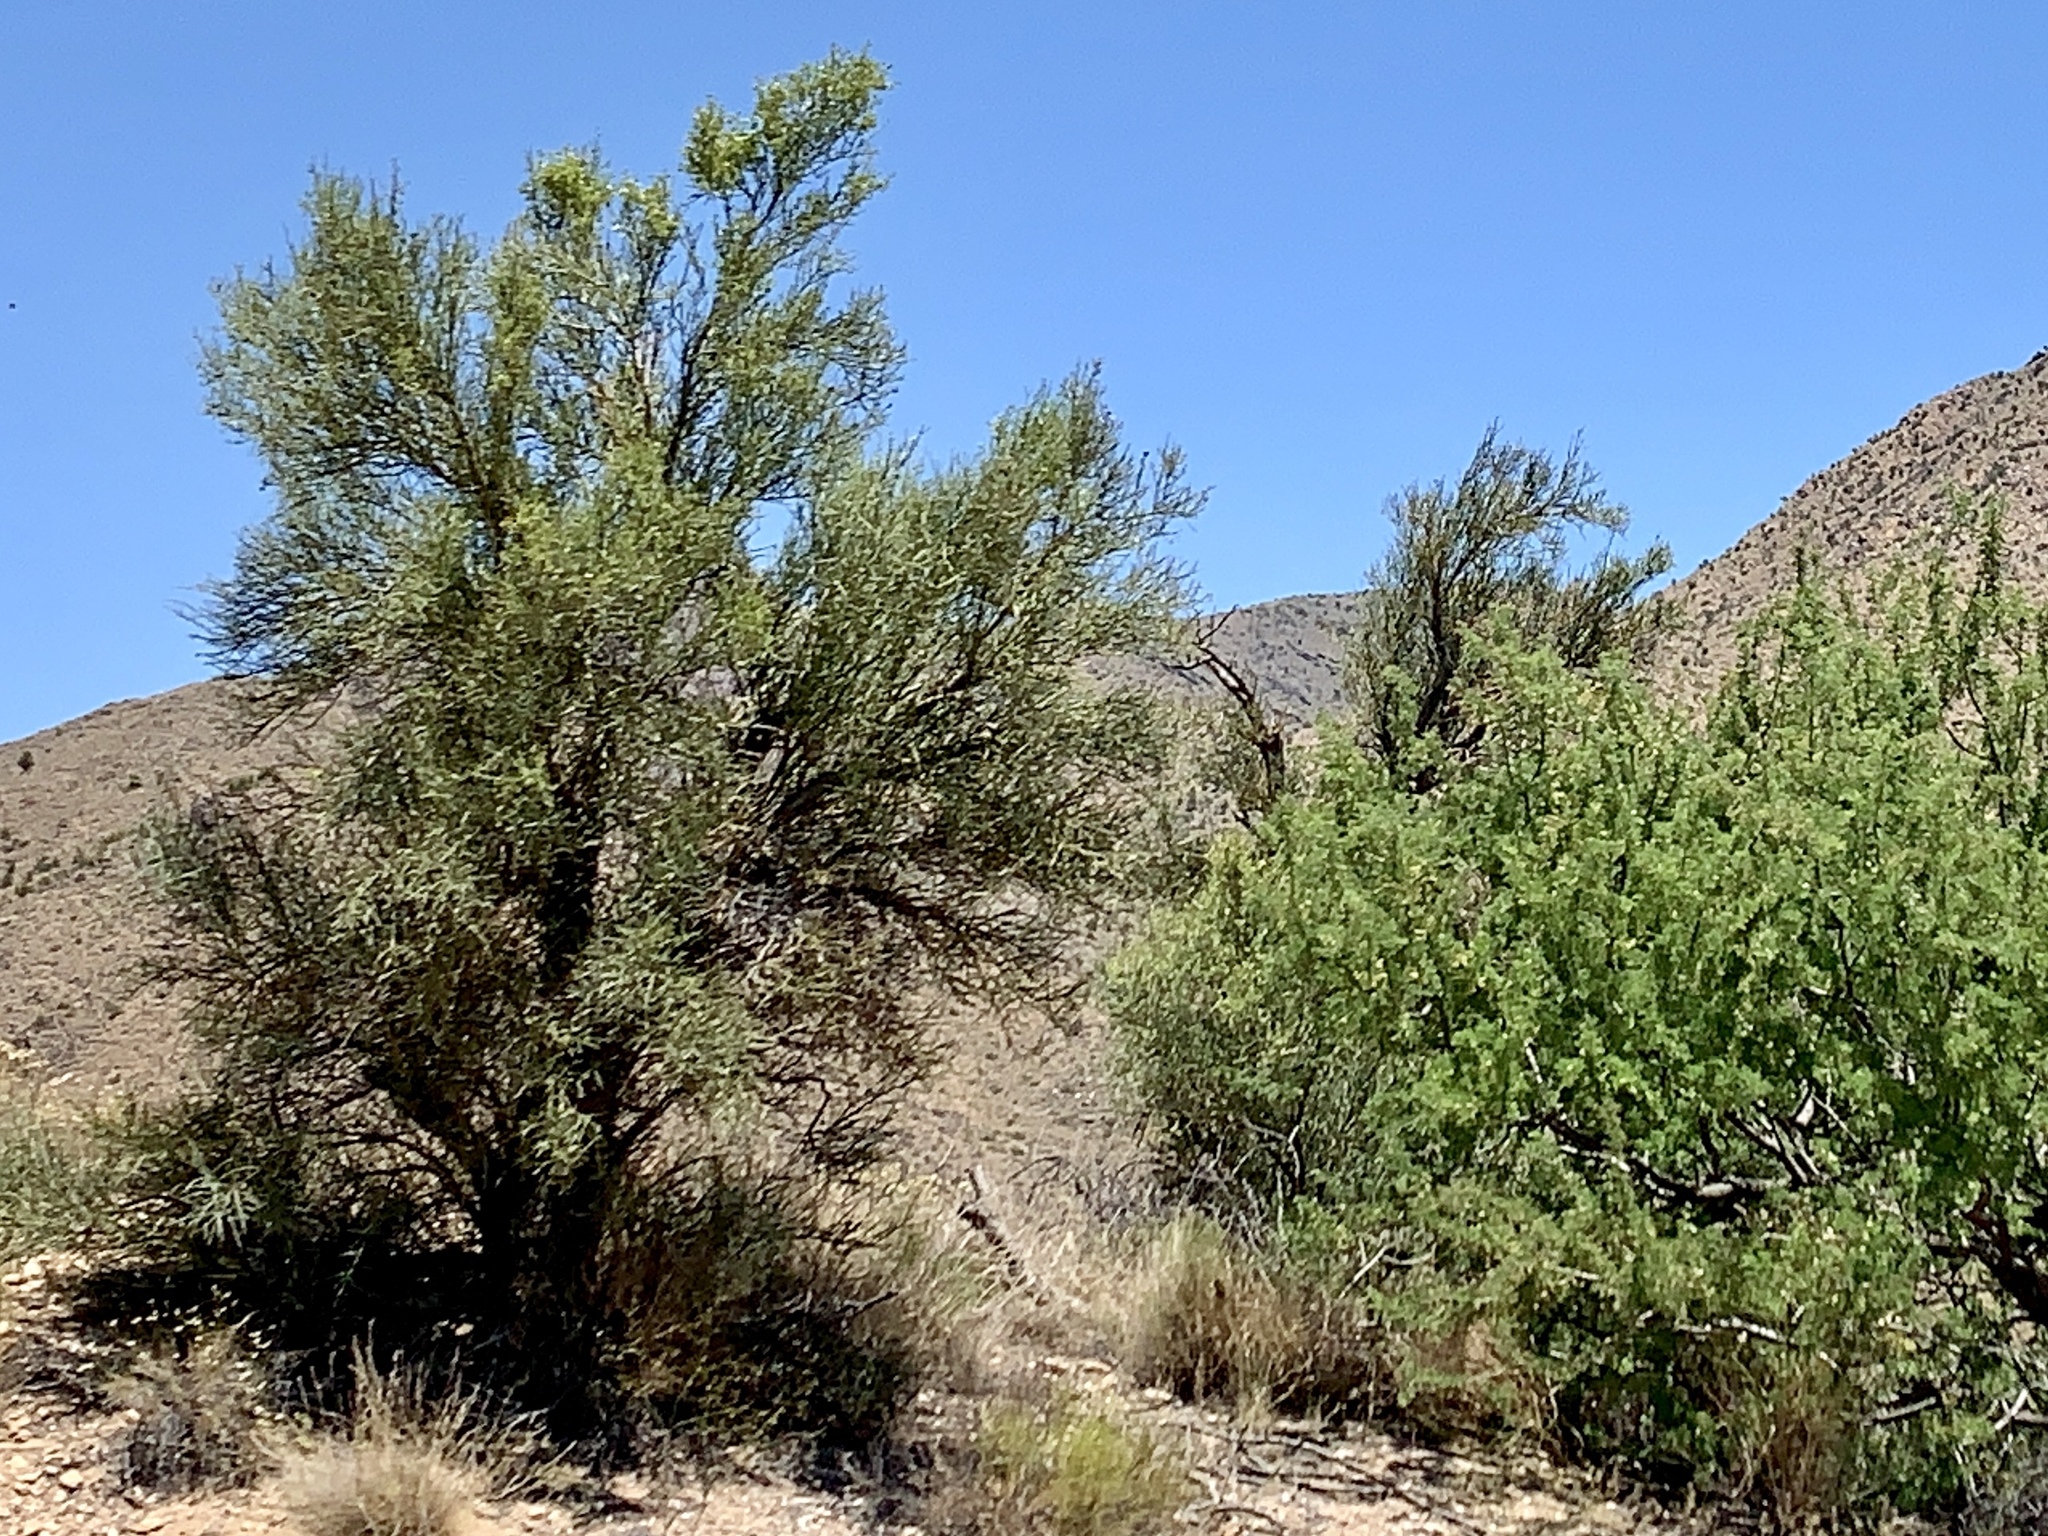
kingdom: Plantae
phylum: Tracheophyta
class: Magnoliopsida
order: Celastrales
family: Celastraceae
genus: Canotia
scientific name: Canotia holacantha
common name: Crucifixion thorns
